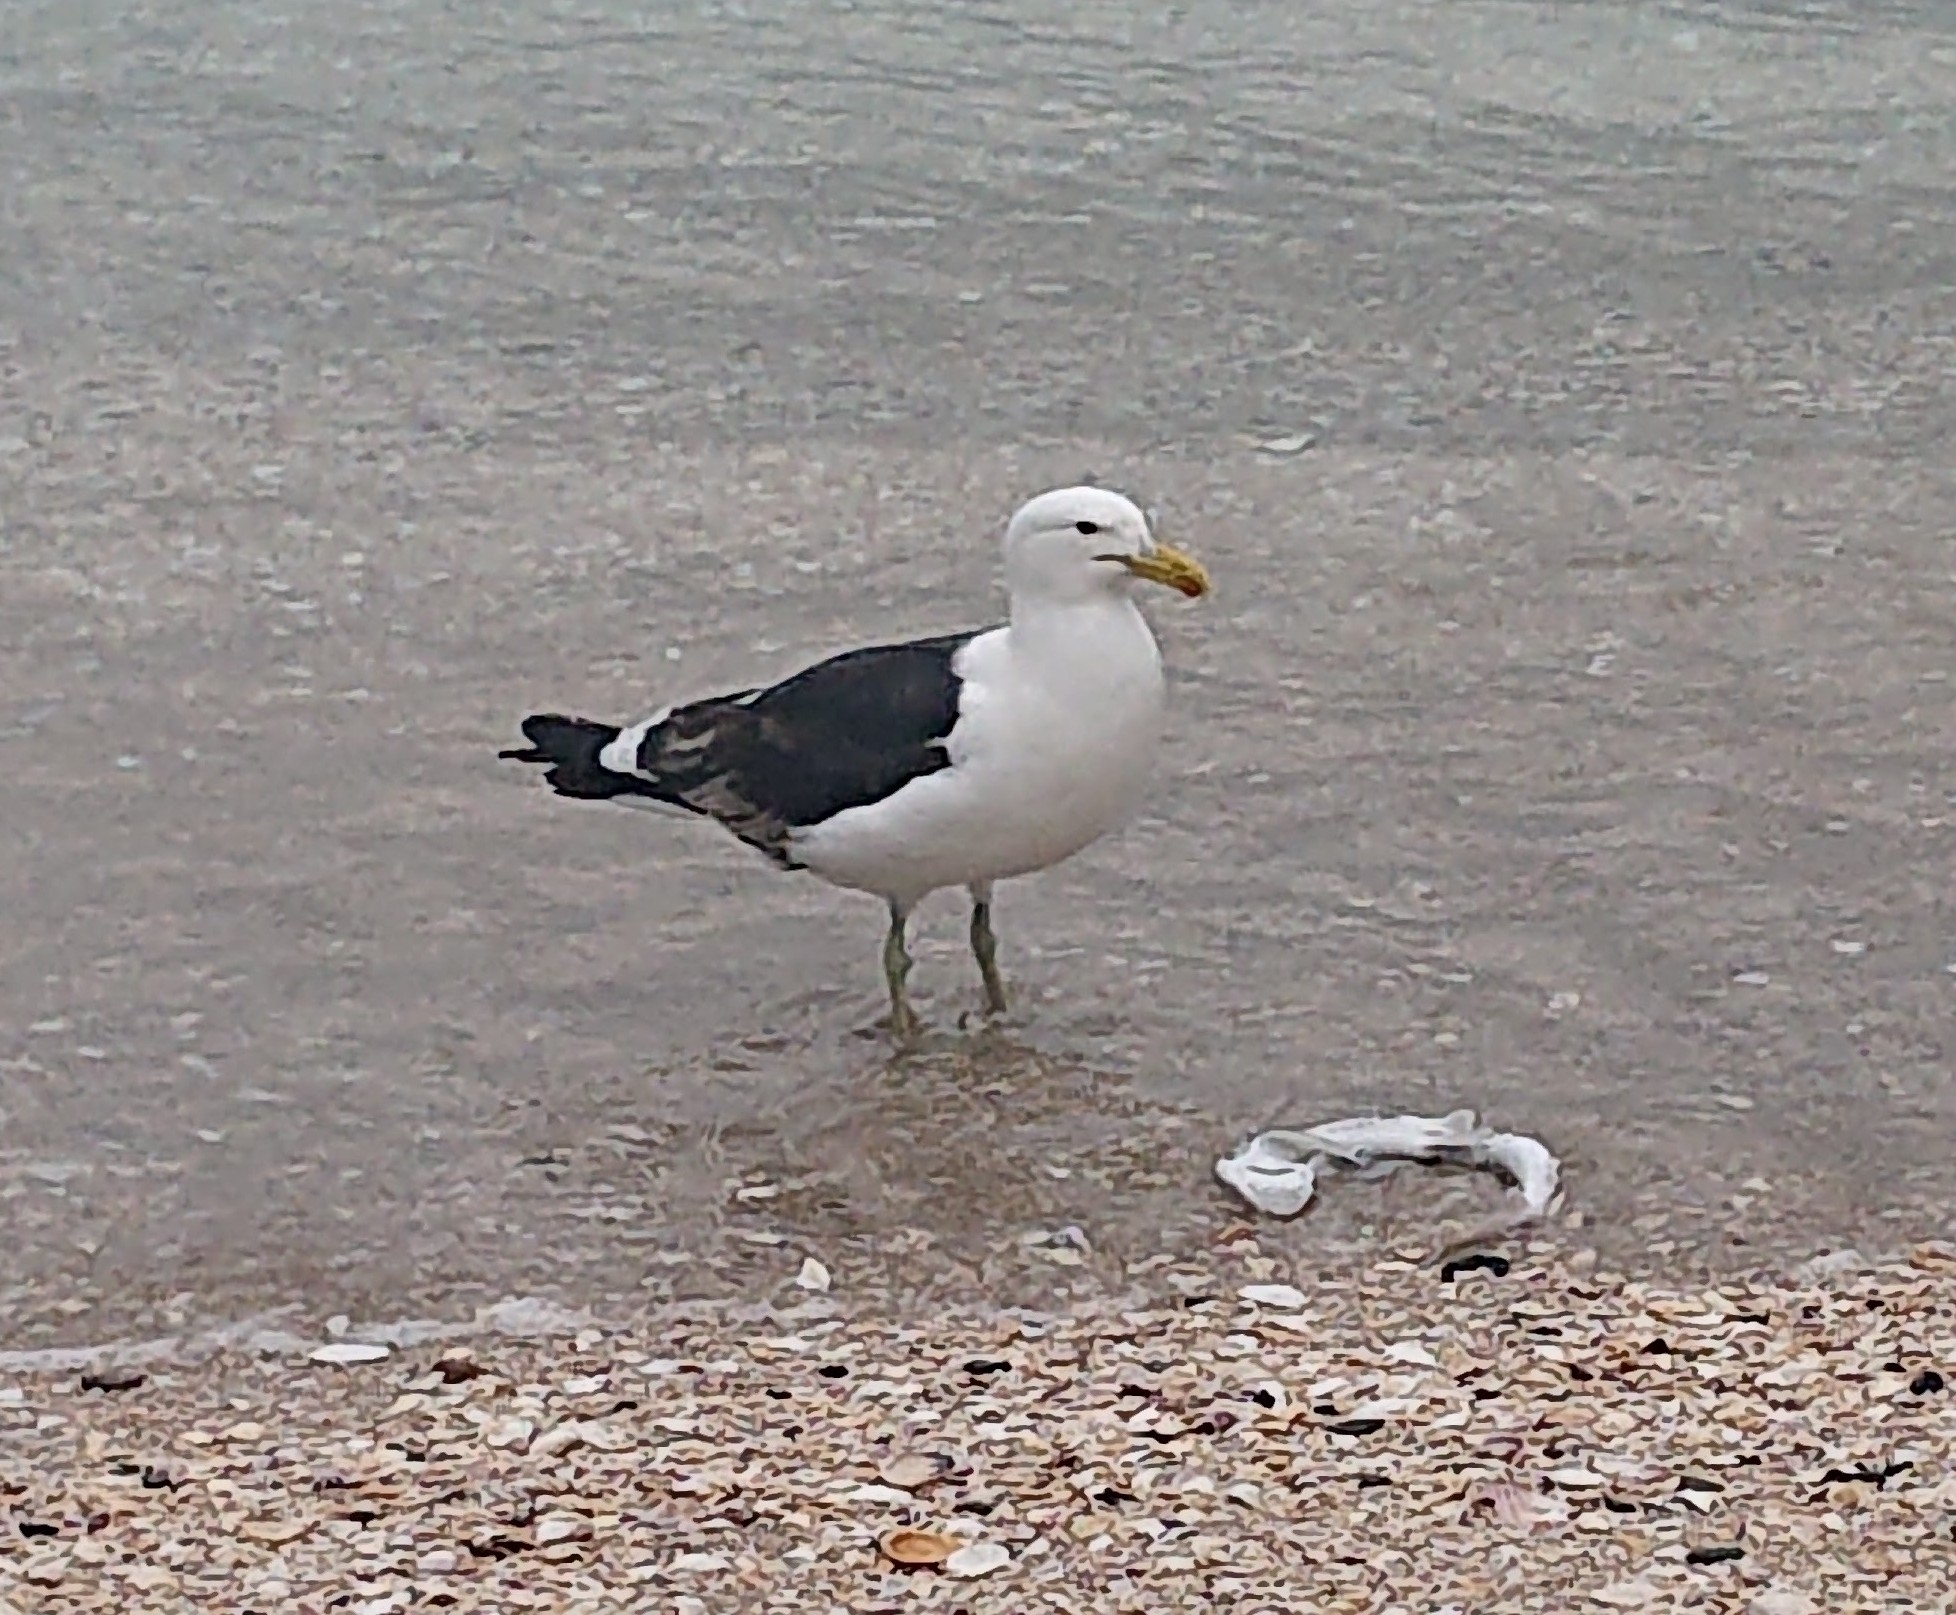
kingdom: Animalia
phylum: Chordata
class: Aves
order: Charadriiformes
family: Laridae
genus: Larus
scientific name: Larus dominicanus
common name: Kelp gull
